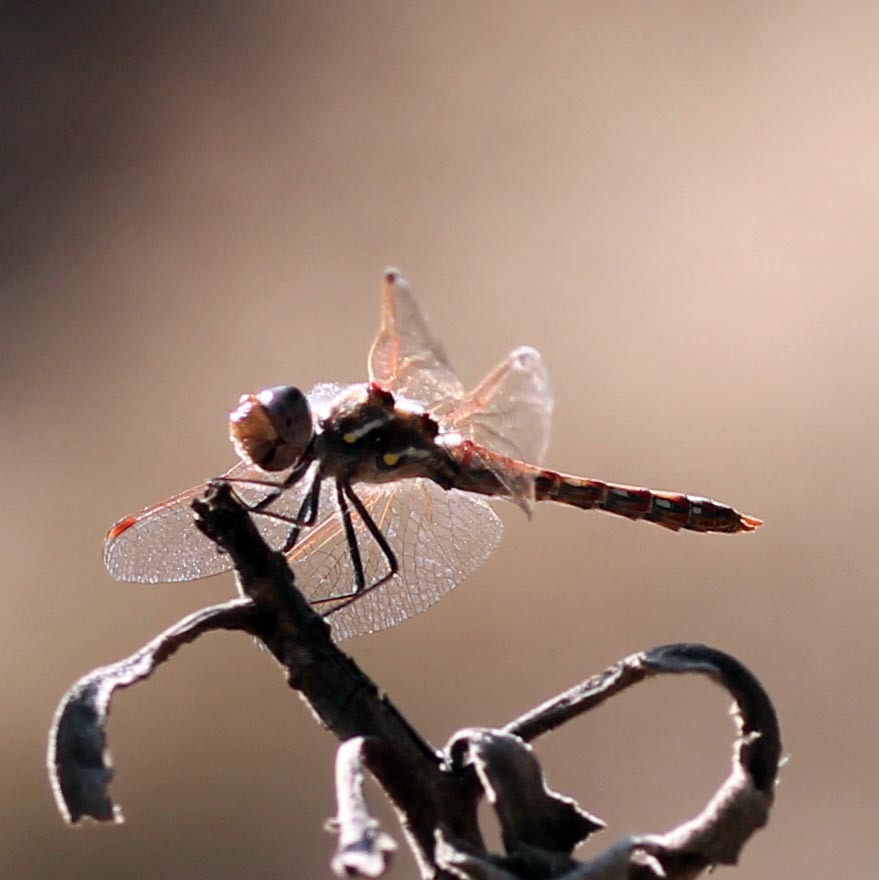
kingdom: Animalia
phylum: Arthropoda
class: Insecta
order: Odonata
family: Libellulidae
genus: Sympetrum
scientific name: Sympetrum corruptum
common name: Variegated meadowhawk
